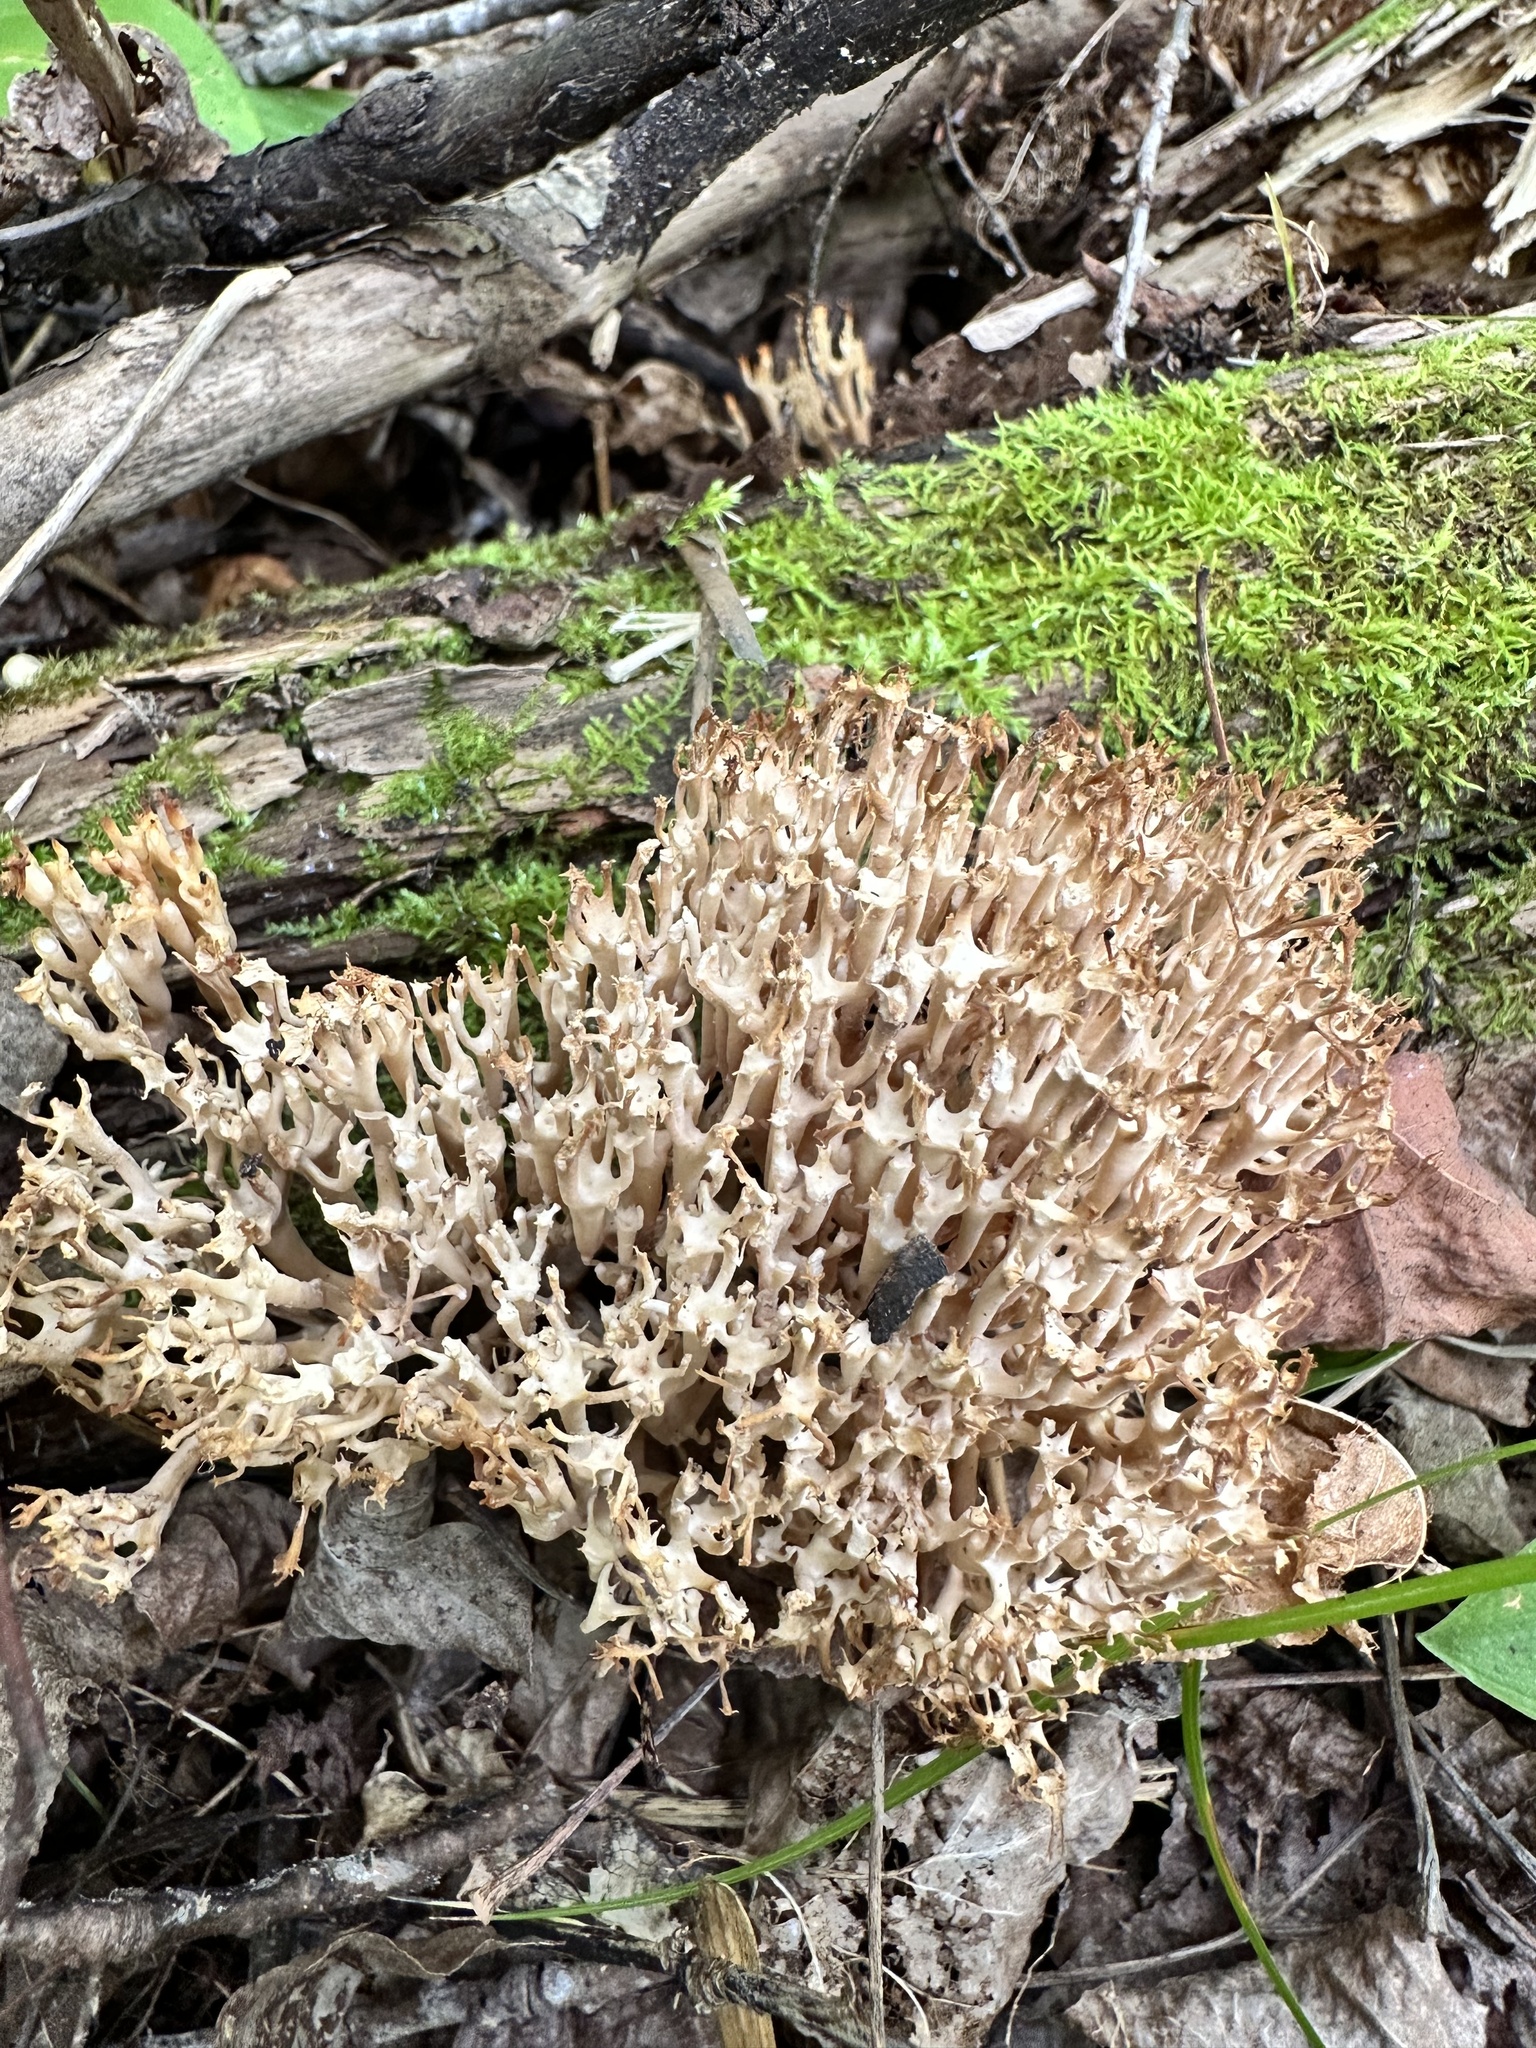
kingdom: Fungi
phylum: Basidiomycota
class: Agaricomycetes
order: Russulales
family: Auriscalpiaceae
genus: Artomyces
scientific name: Artomyces pyxidatus
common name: Crown-tipped coral fungus
